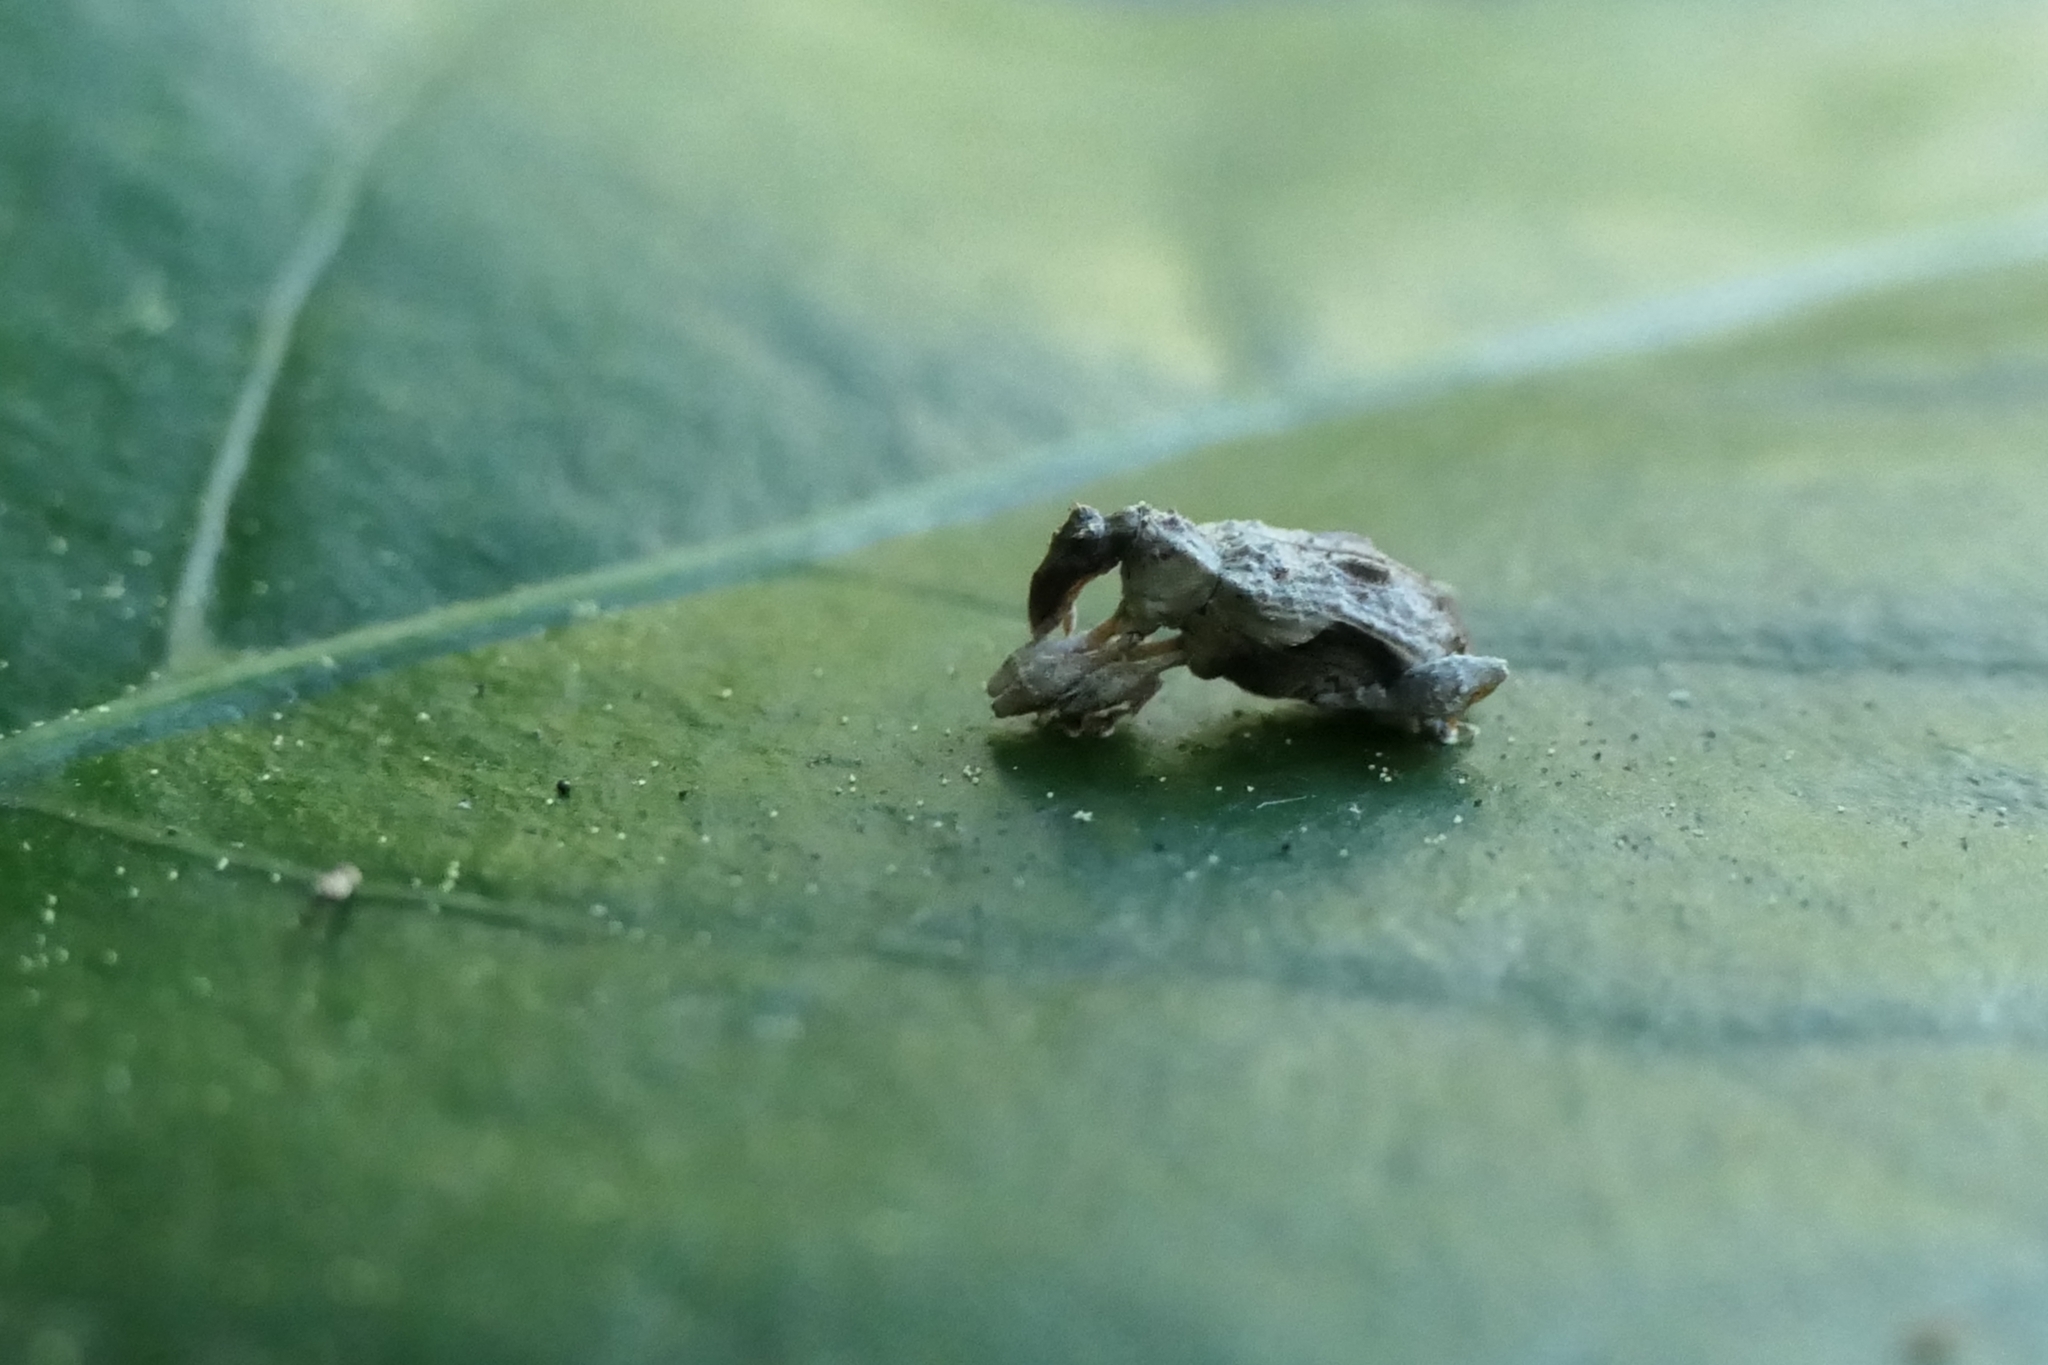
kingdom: Animalia
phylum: Arthropoda
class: Insecta
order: Coleoptera
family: Curculionidae
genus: Stephanorhynchus
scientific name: Stephanorhynchus curvipes
